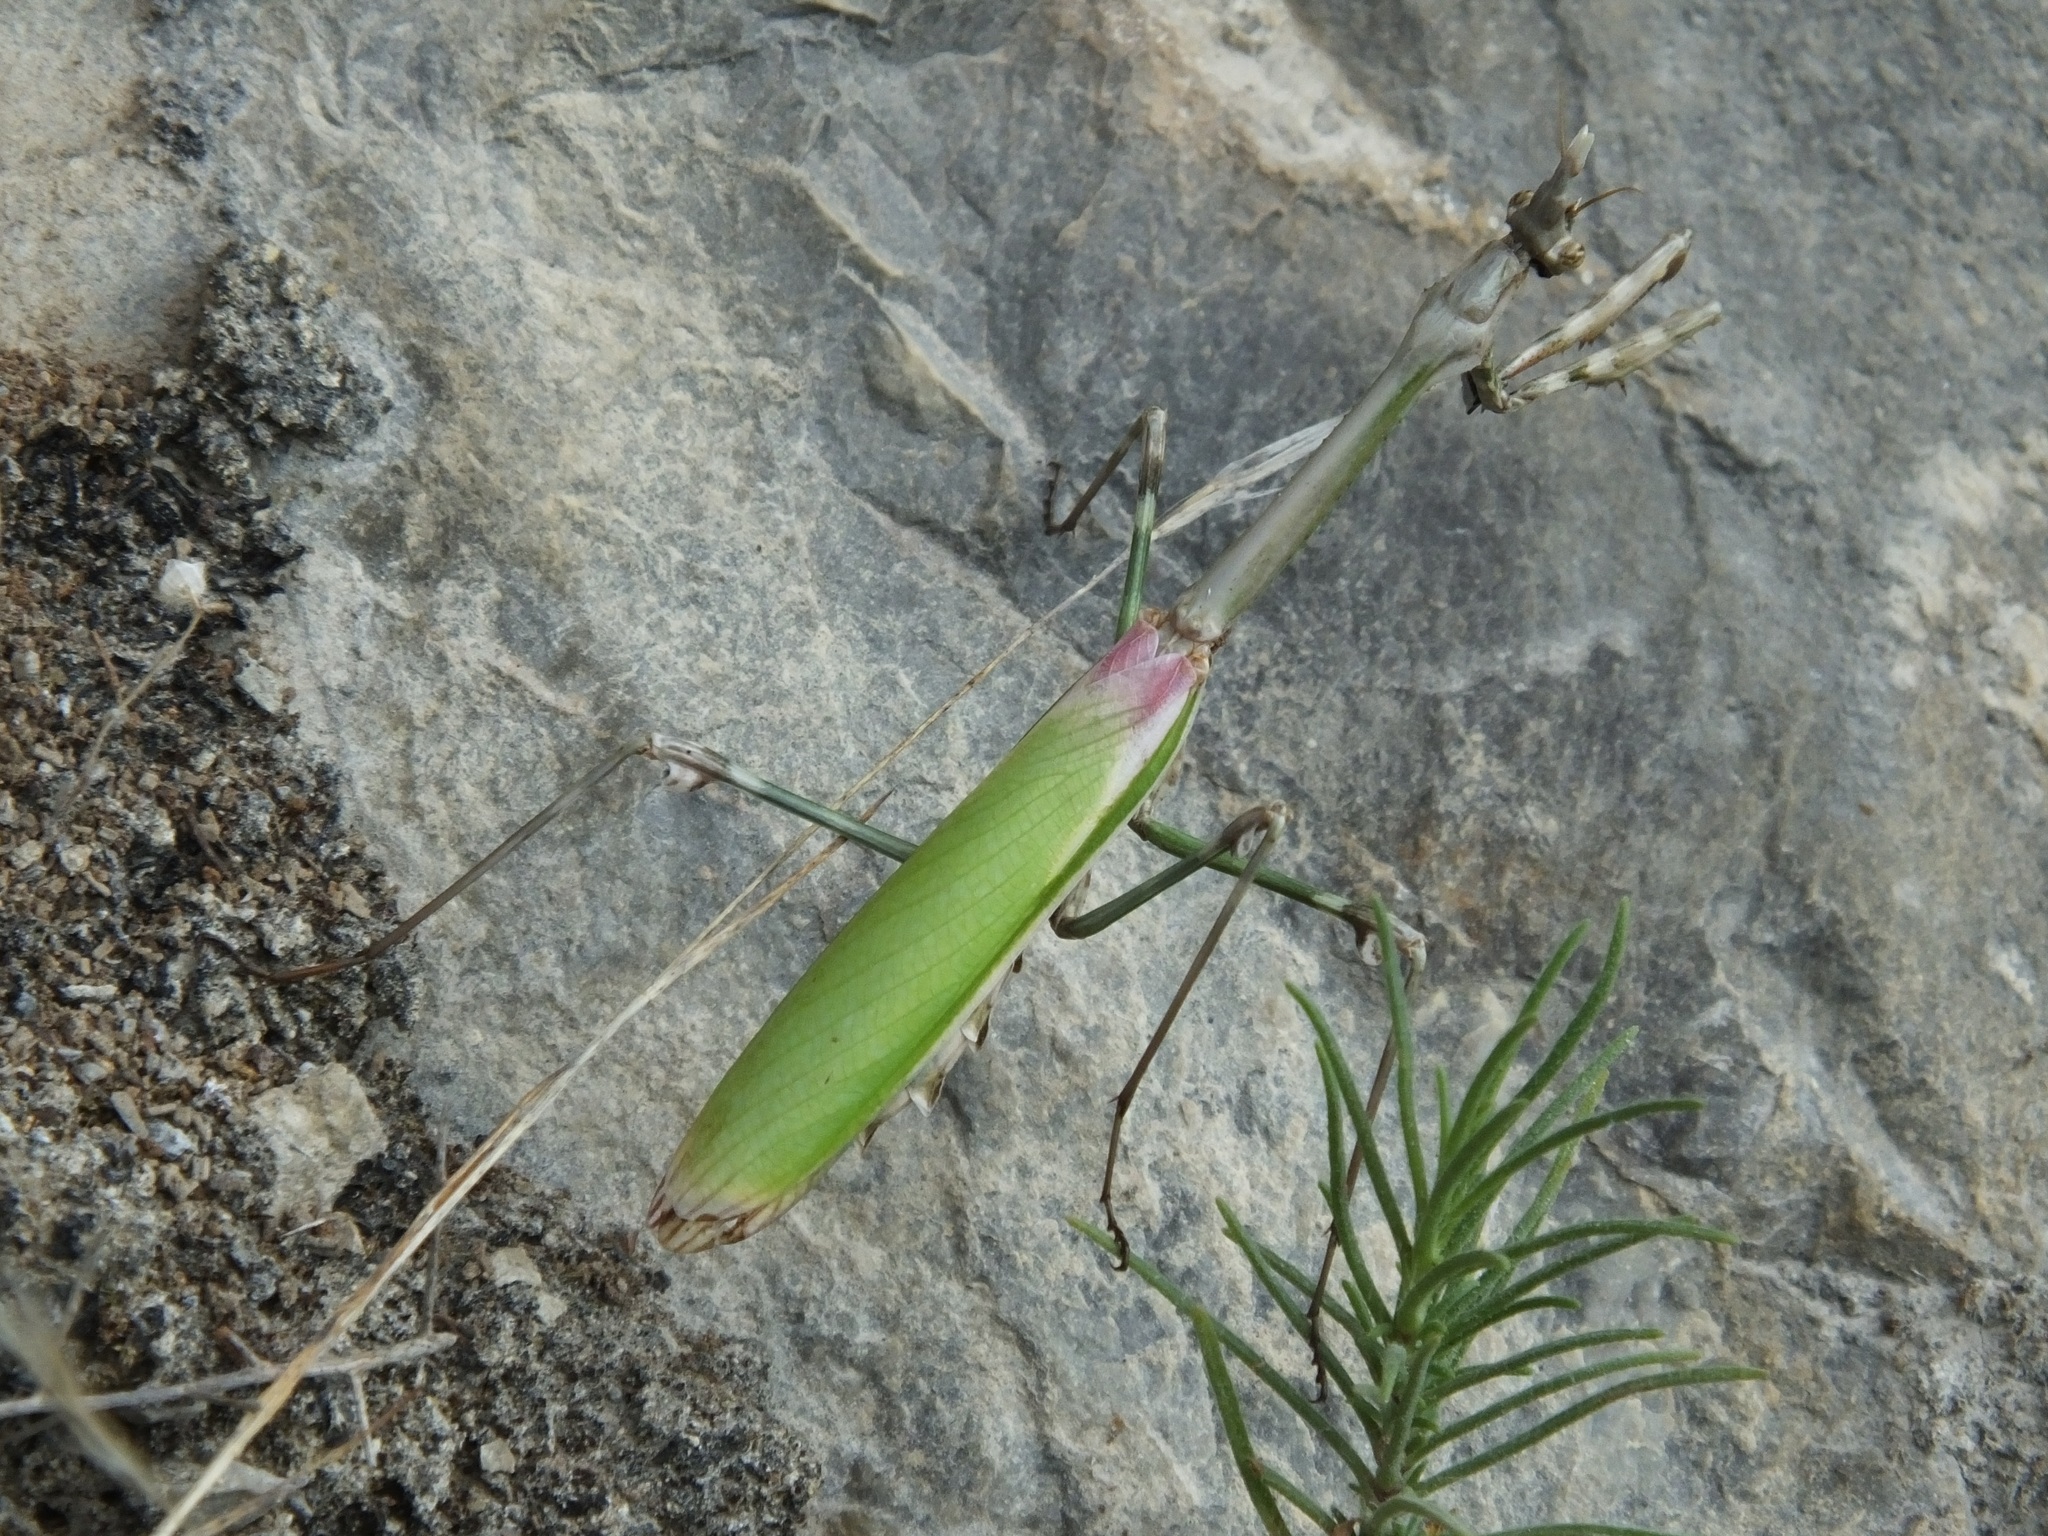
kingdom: Animalia
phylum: Arthropoda
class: Insecta
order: Mantodea
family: Empusidae
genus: Empusa
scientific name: Empusa pennata
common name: Conehead mantis
